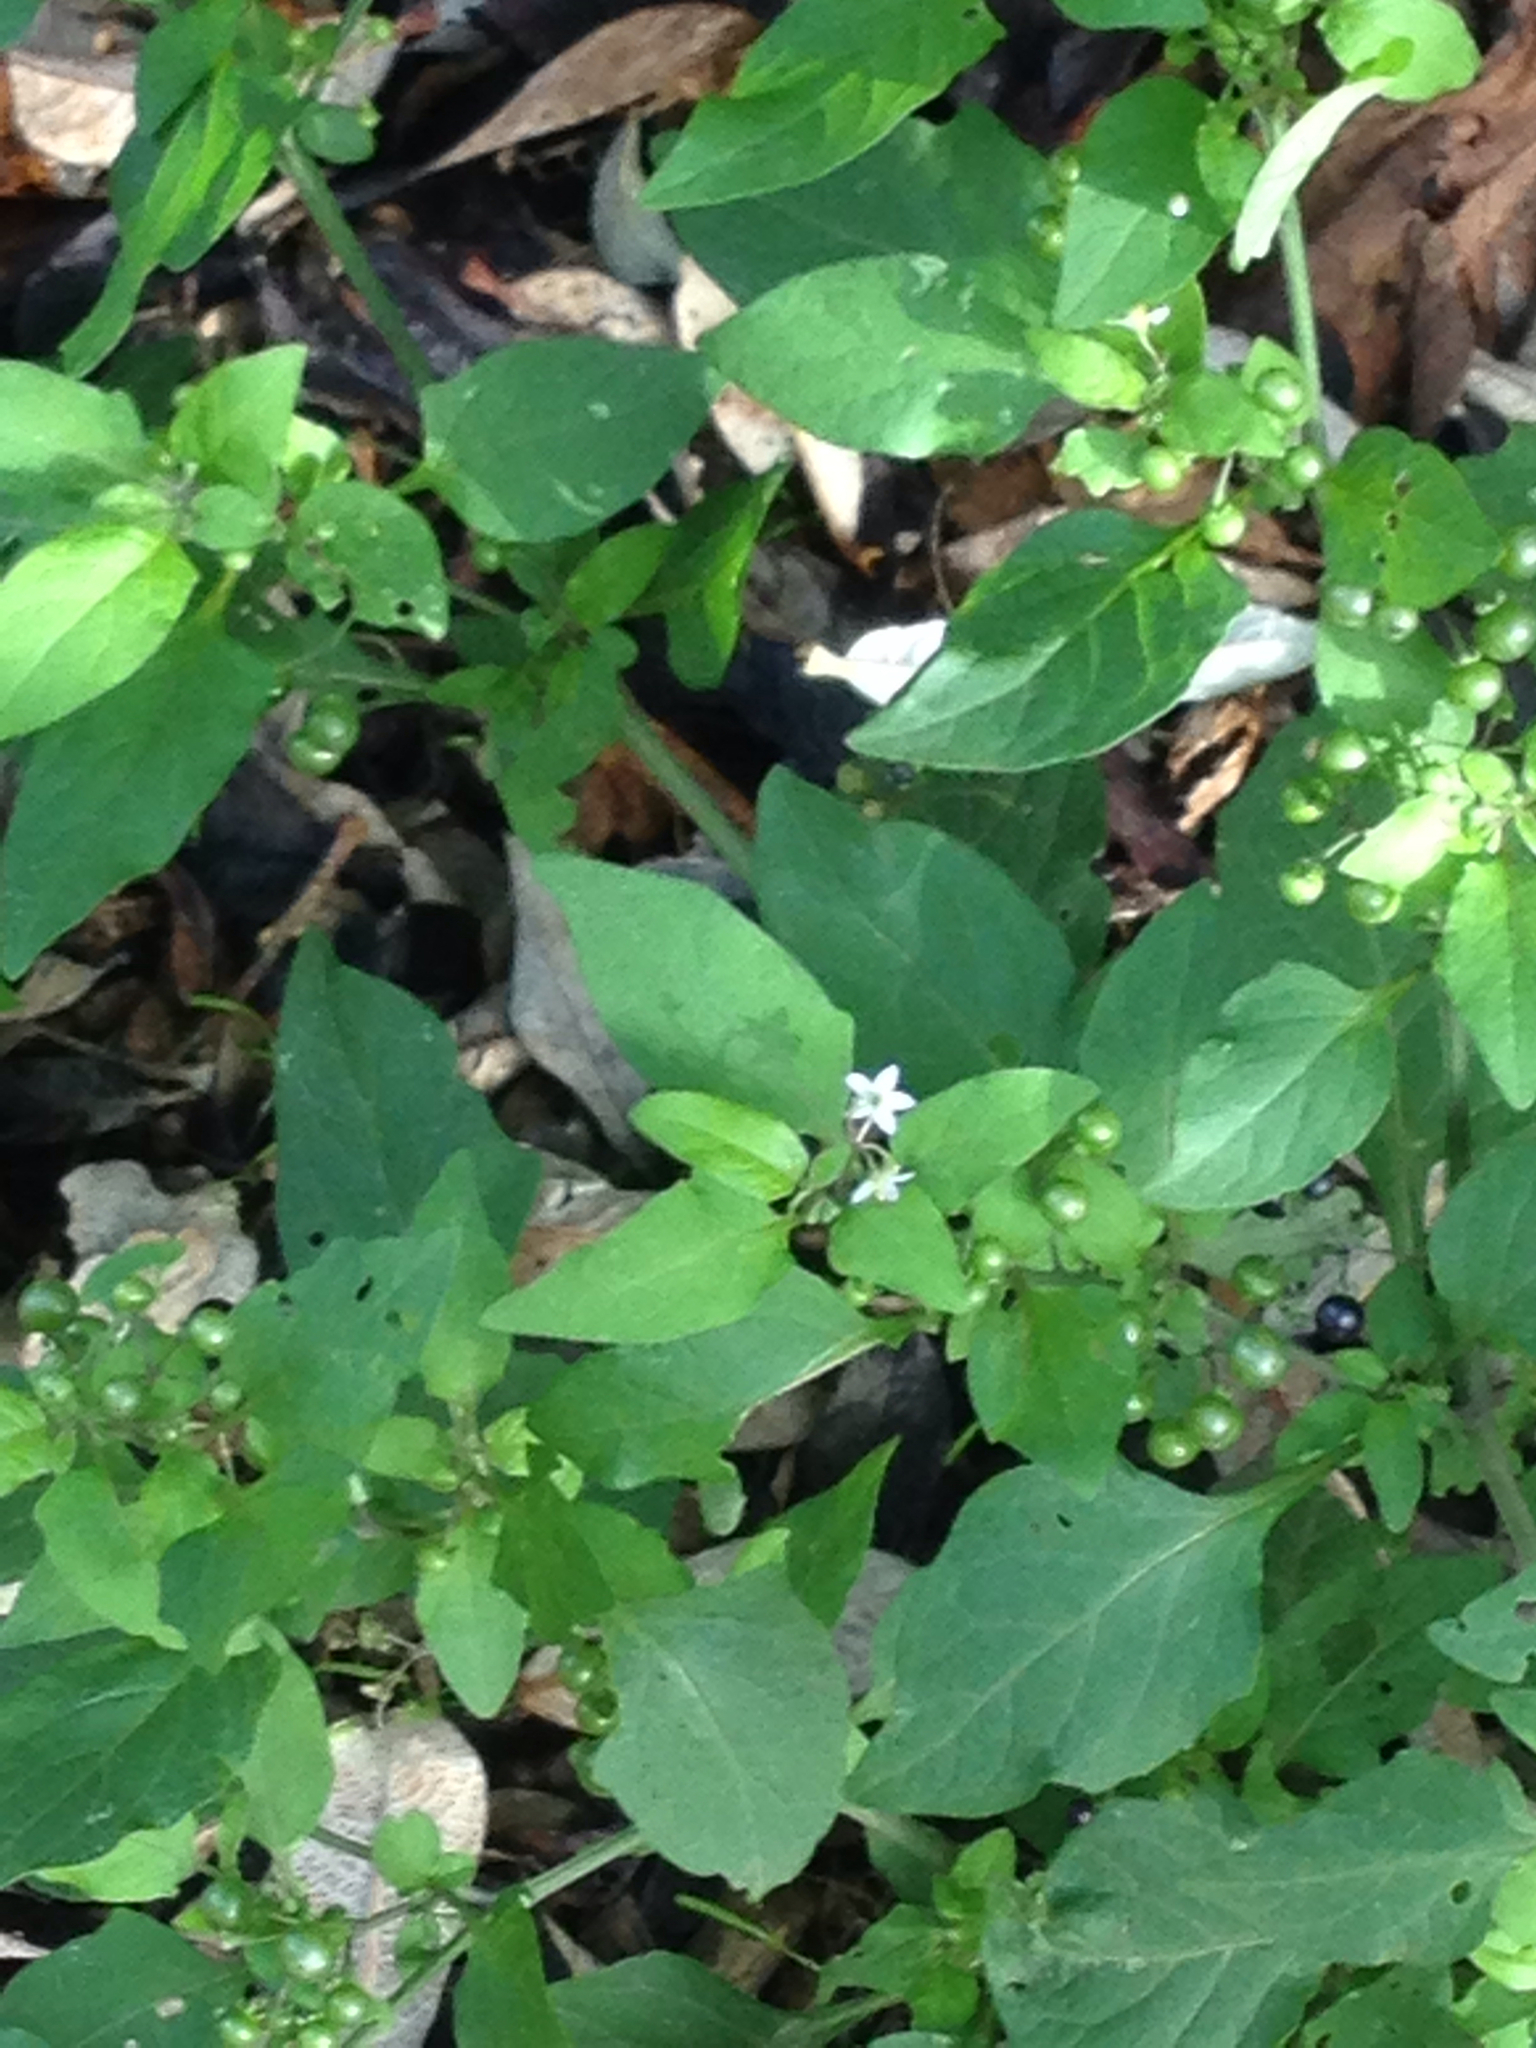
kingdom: Plantae
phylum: Tracheophyta
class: Magnoliopsida
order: Solanales
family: Solanaceae
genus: Solanum
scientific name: Solanum americanum
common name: American black nightshade
